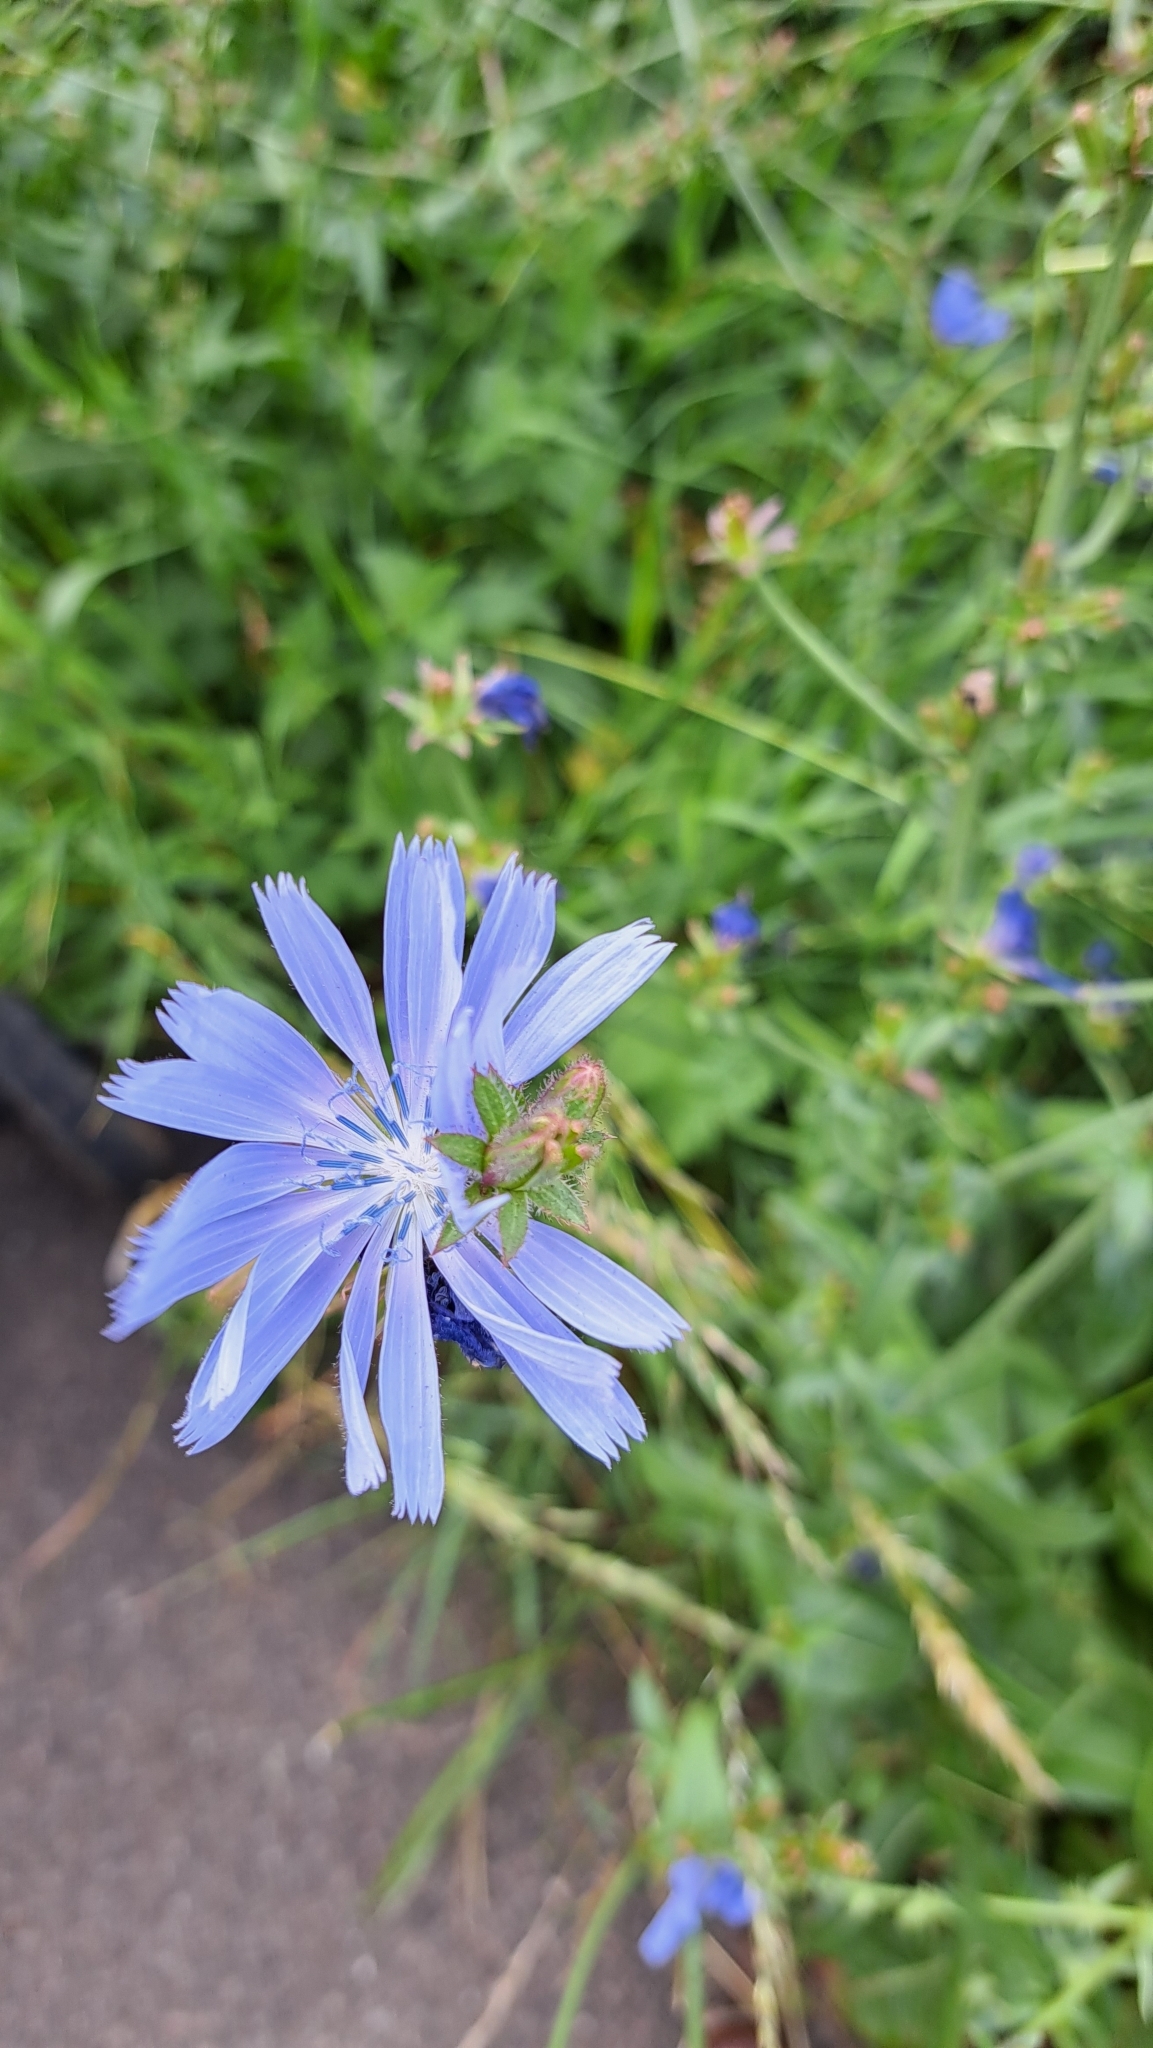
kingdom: Plantae
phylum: Tracheophyta
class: Magnoliopsida
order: Asterales
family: Asteraceae
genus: Cichorium
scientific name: Cichorium intybus
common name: Chicory
